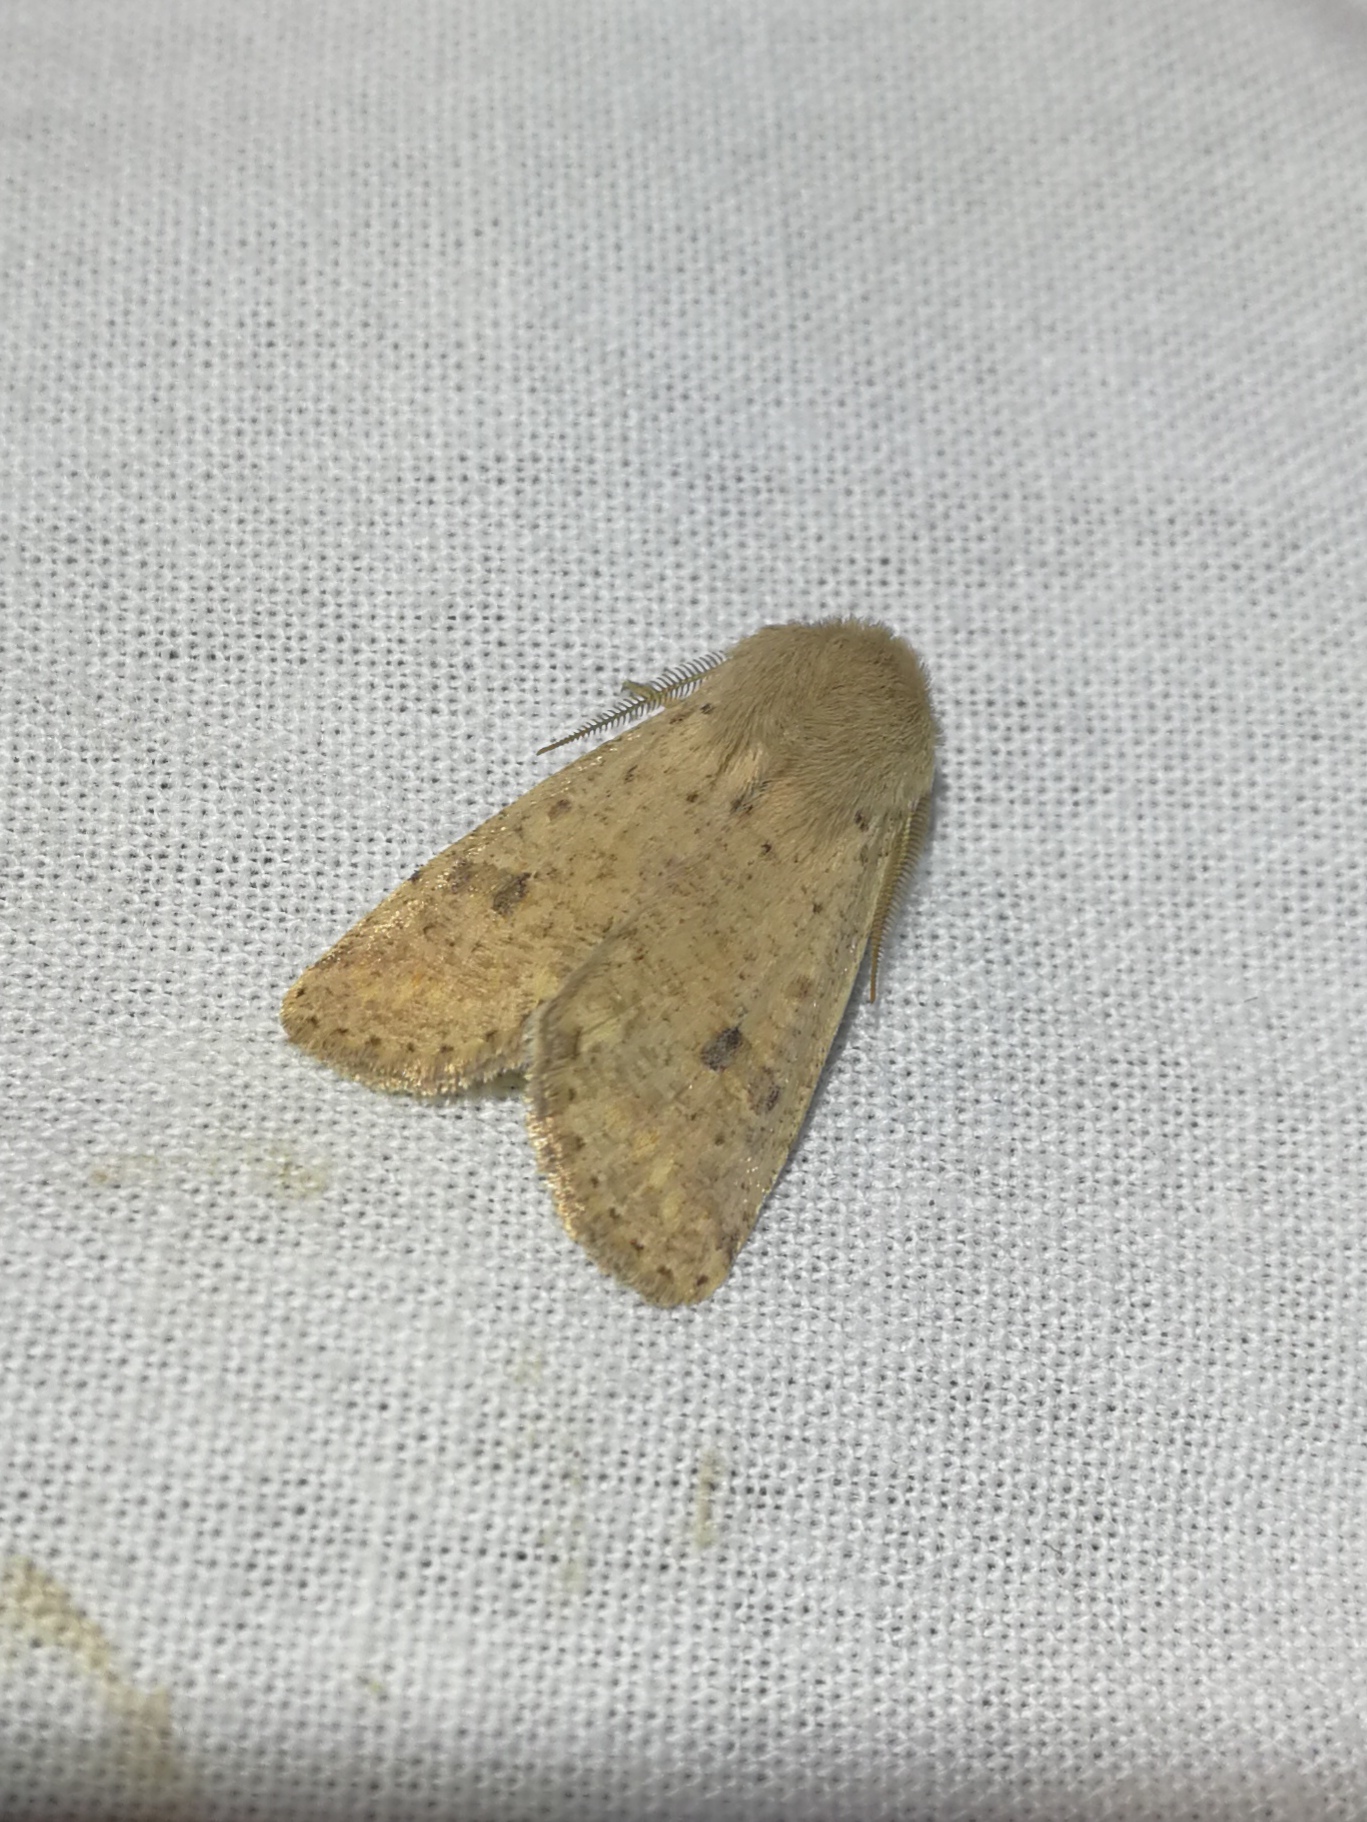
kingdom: Animalia
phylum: Arthropoda
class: Insecta
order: Lepidoptera
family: Noctuidae
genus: Orthosia
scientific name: Orthosia cruda
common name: Small quaker
